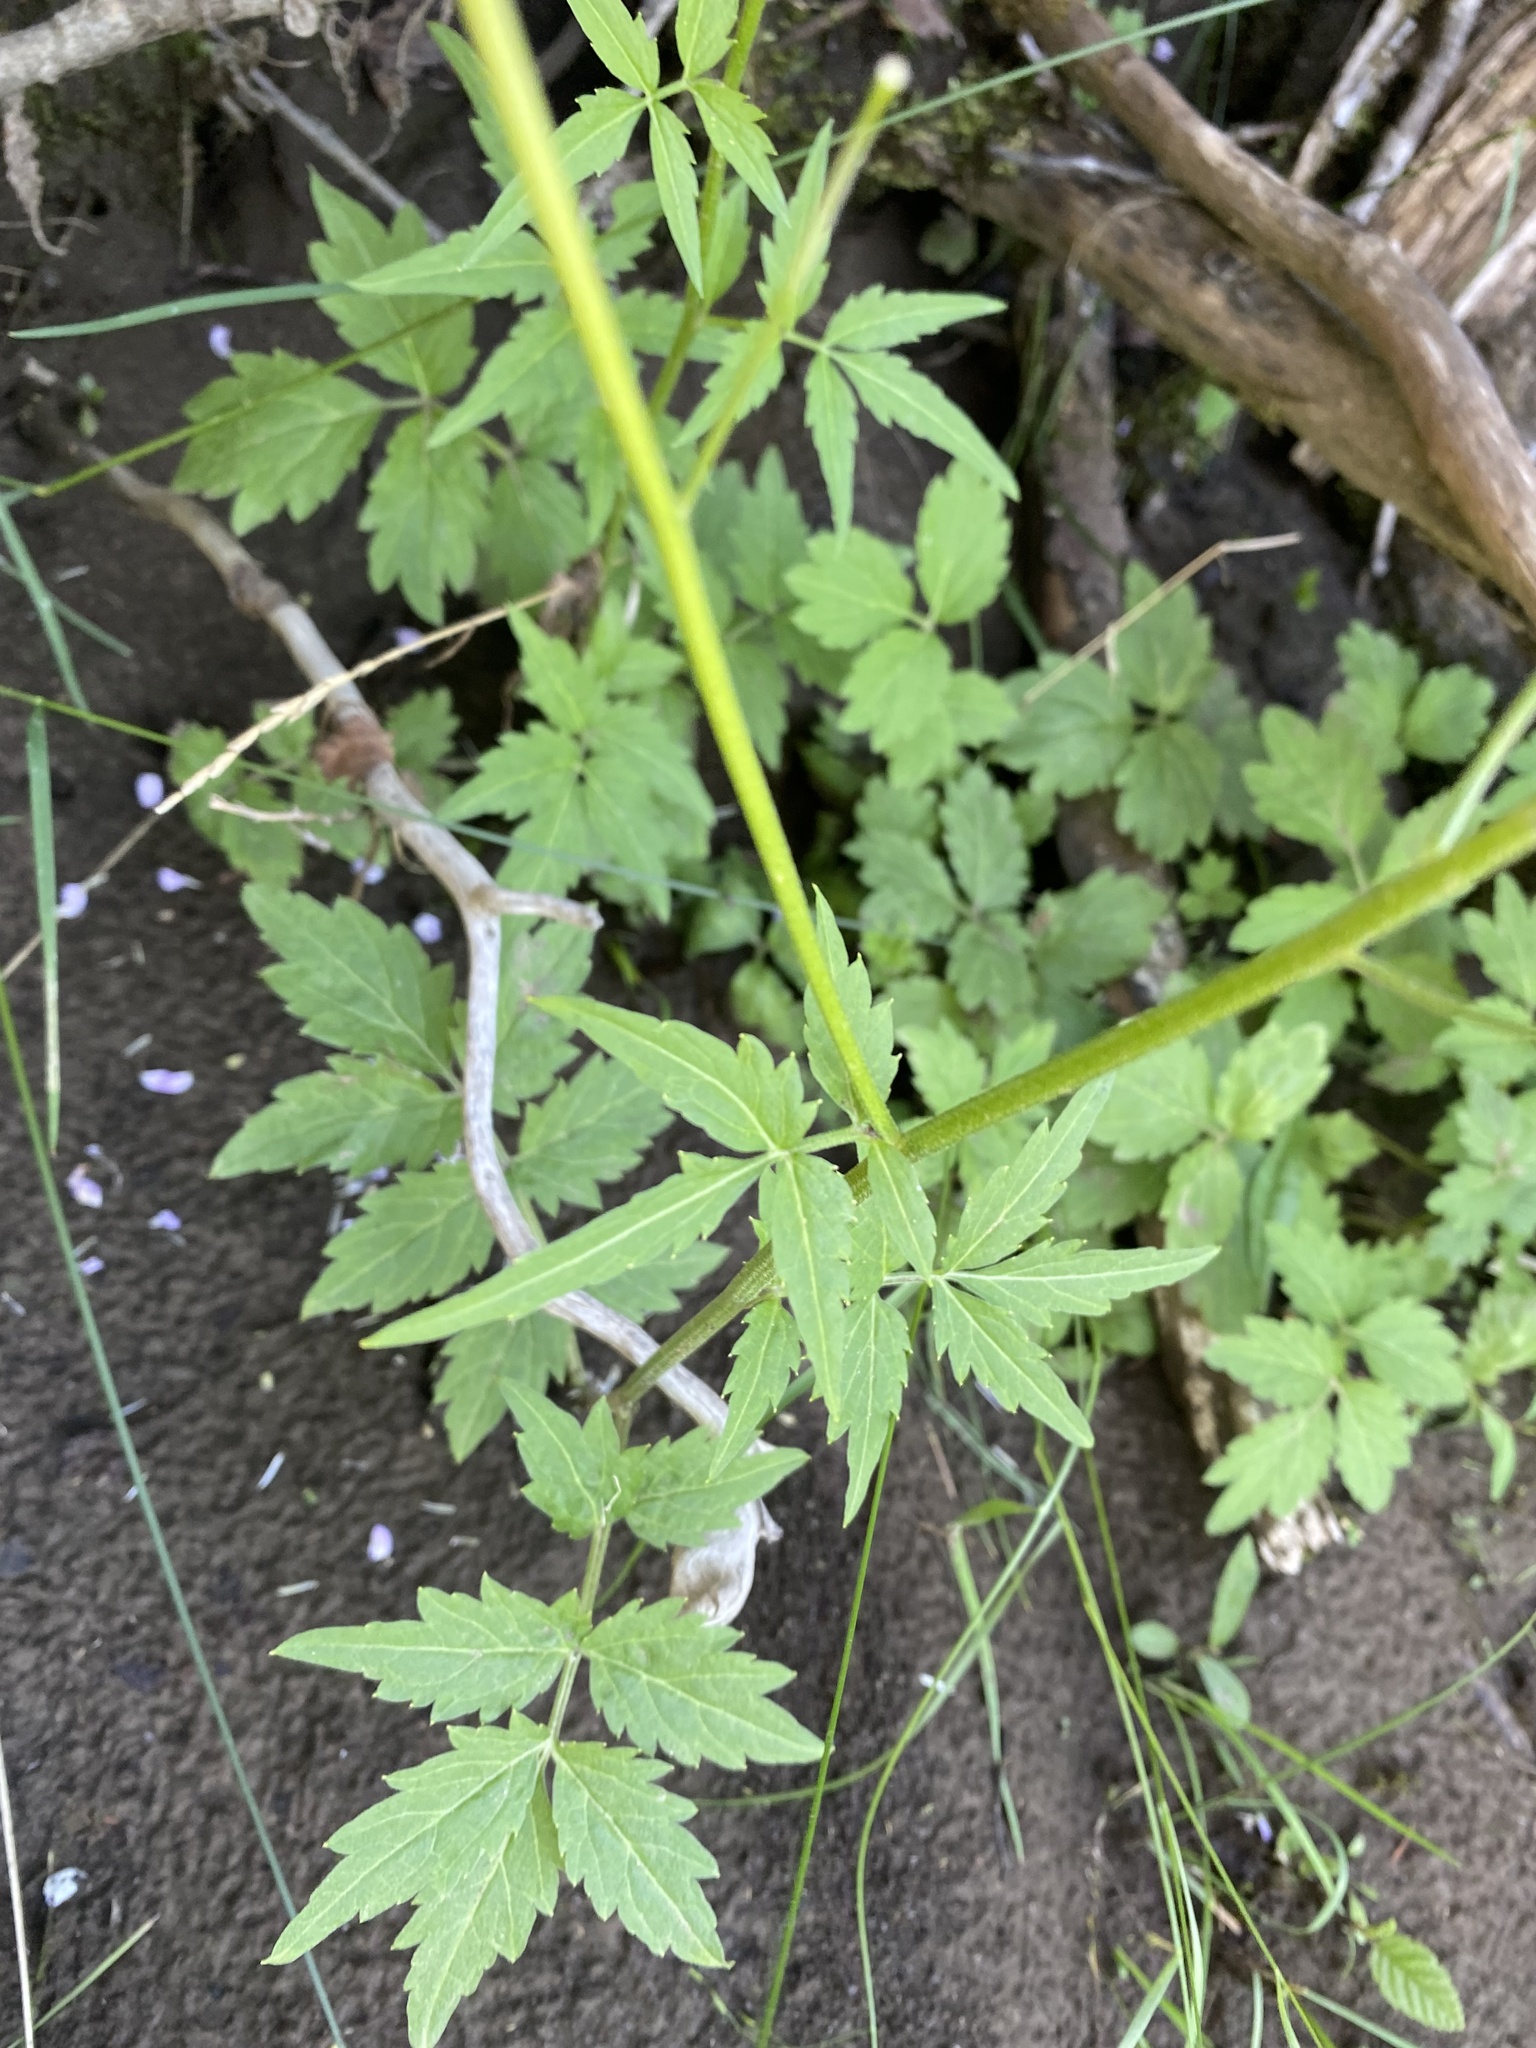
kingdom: Plantae
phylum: Tracheophyta
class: Magnoliopsida
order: Brassicales
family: Brassicaceae
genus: Cardamine
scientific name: Cardamine macrophylla
